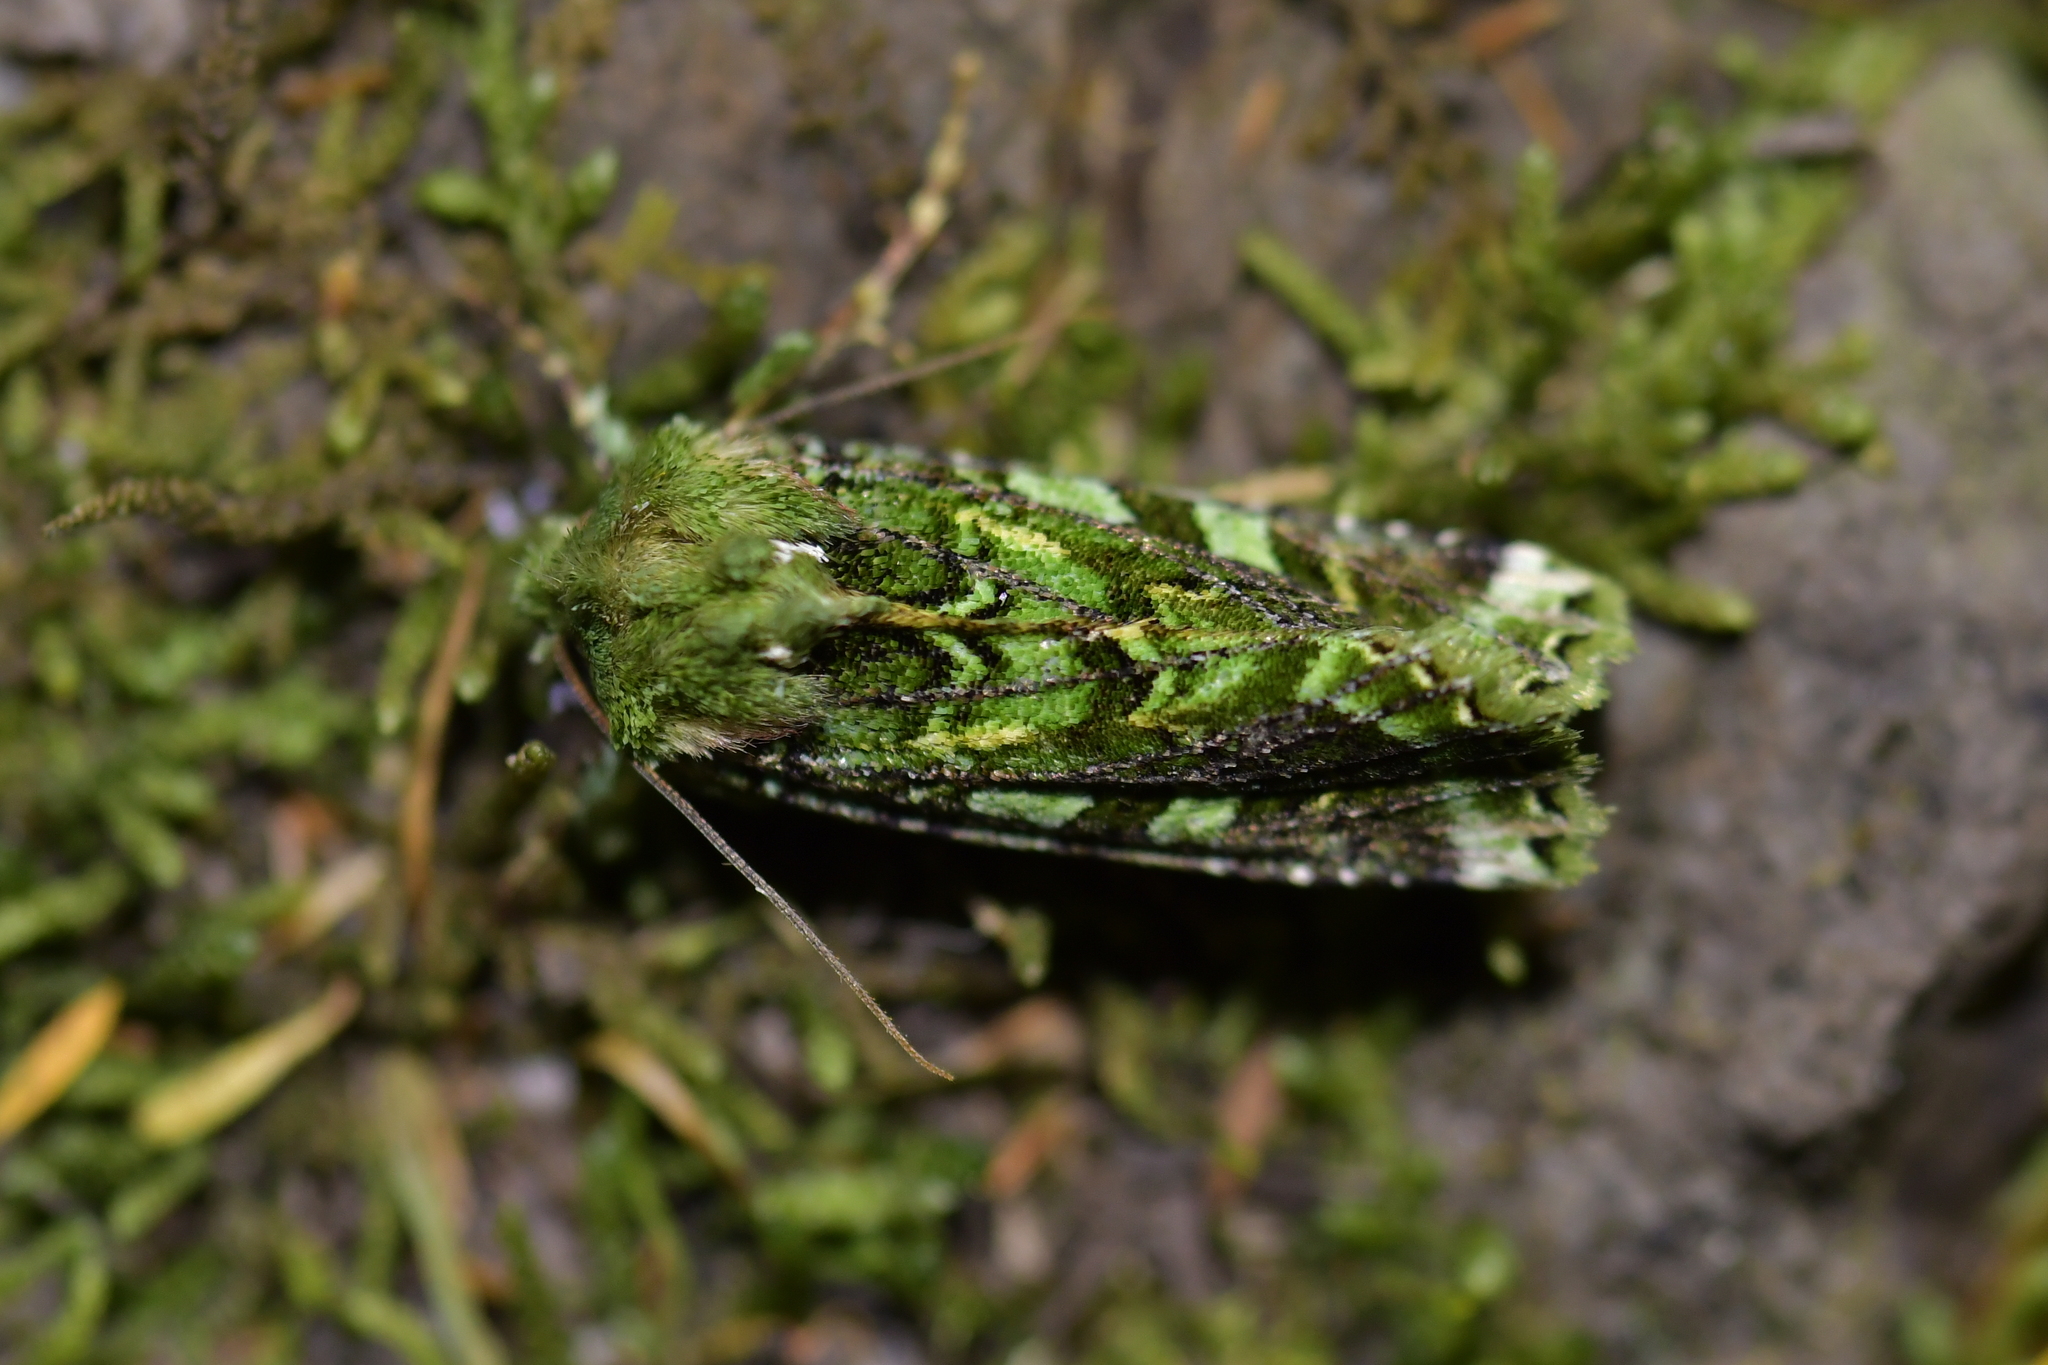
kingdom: Animalia
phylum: Arthropoda
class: Insecta
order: Lepidoptera
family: Noctuidae
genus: Feredayia
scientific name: Feredayia grammosa
